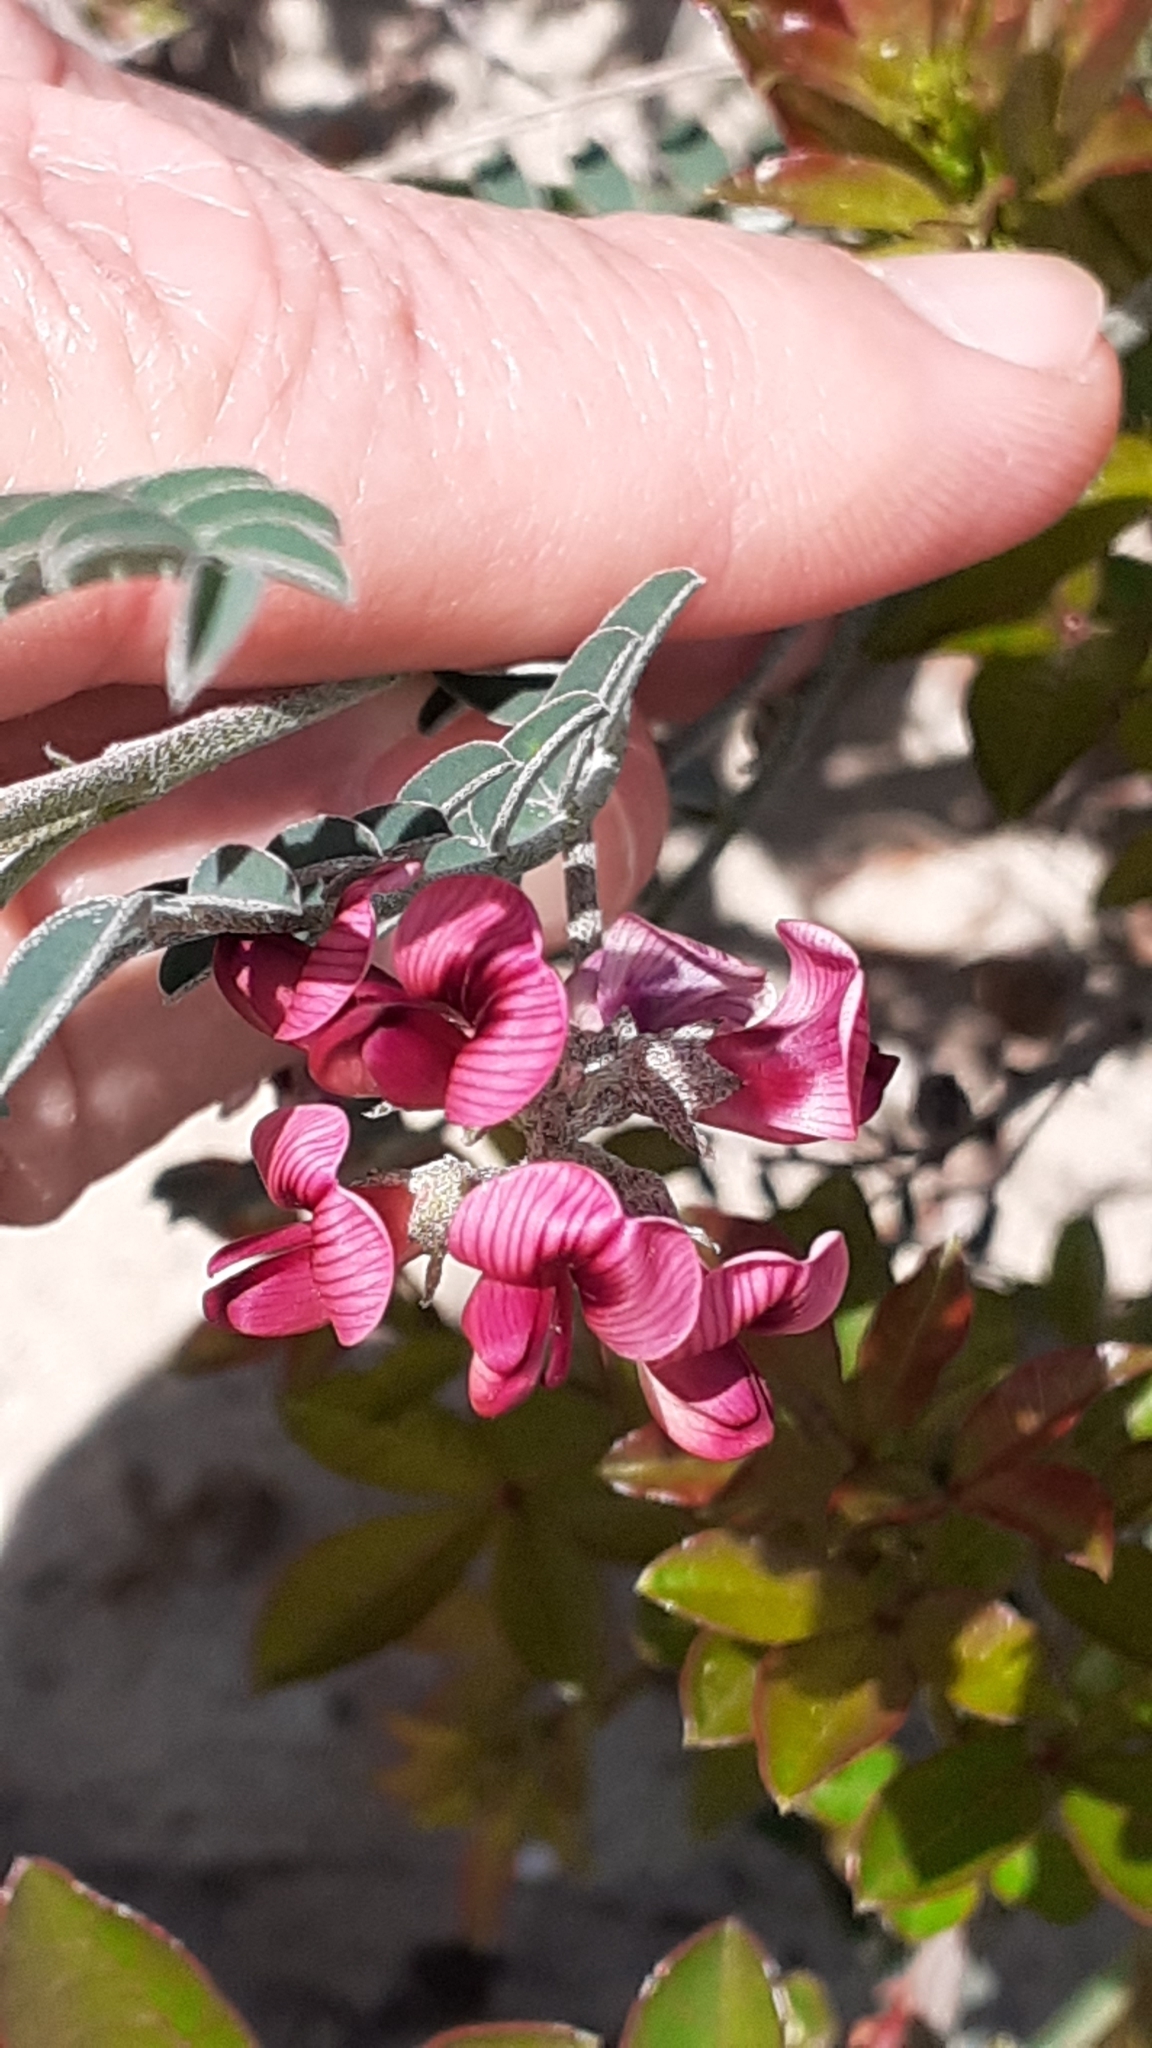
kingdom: Plantae
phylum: Tracheophyta
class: Magnoliopsida
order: Fabales
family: Fabaceae
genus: Lessertia
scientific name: Lessertia villosa
